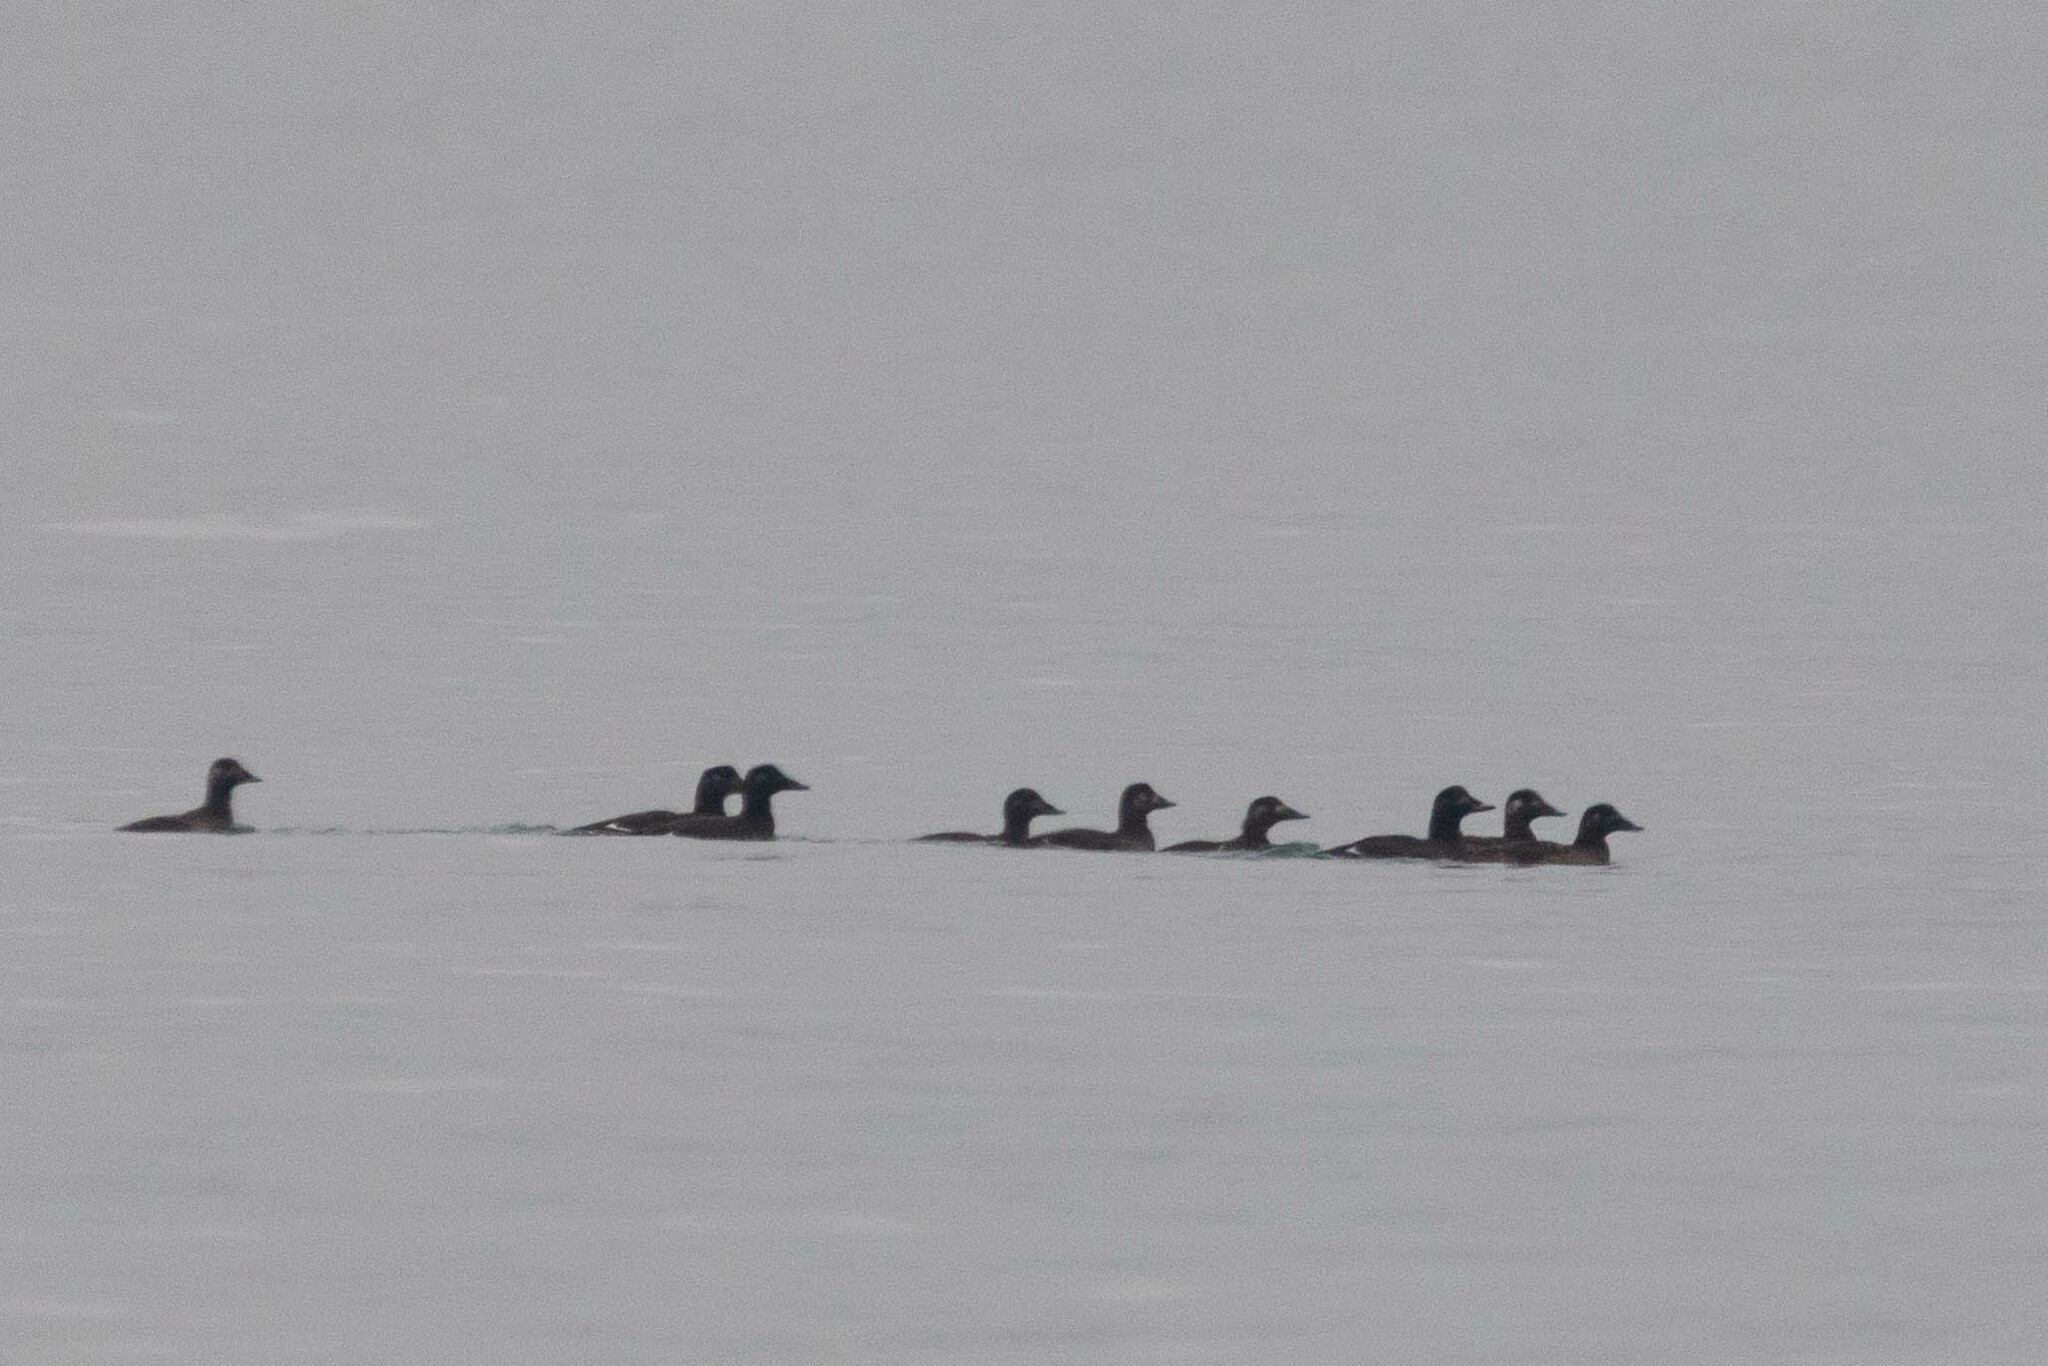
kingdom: Animalia
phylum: Chordata
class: Aves
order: Anseriformes
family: Anatidae
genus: Melanitta
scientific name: Melanitta deglandi
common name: White-winged scoter
